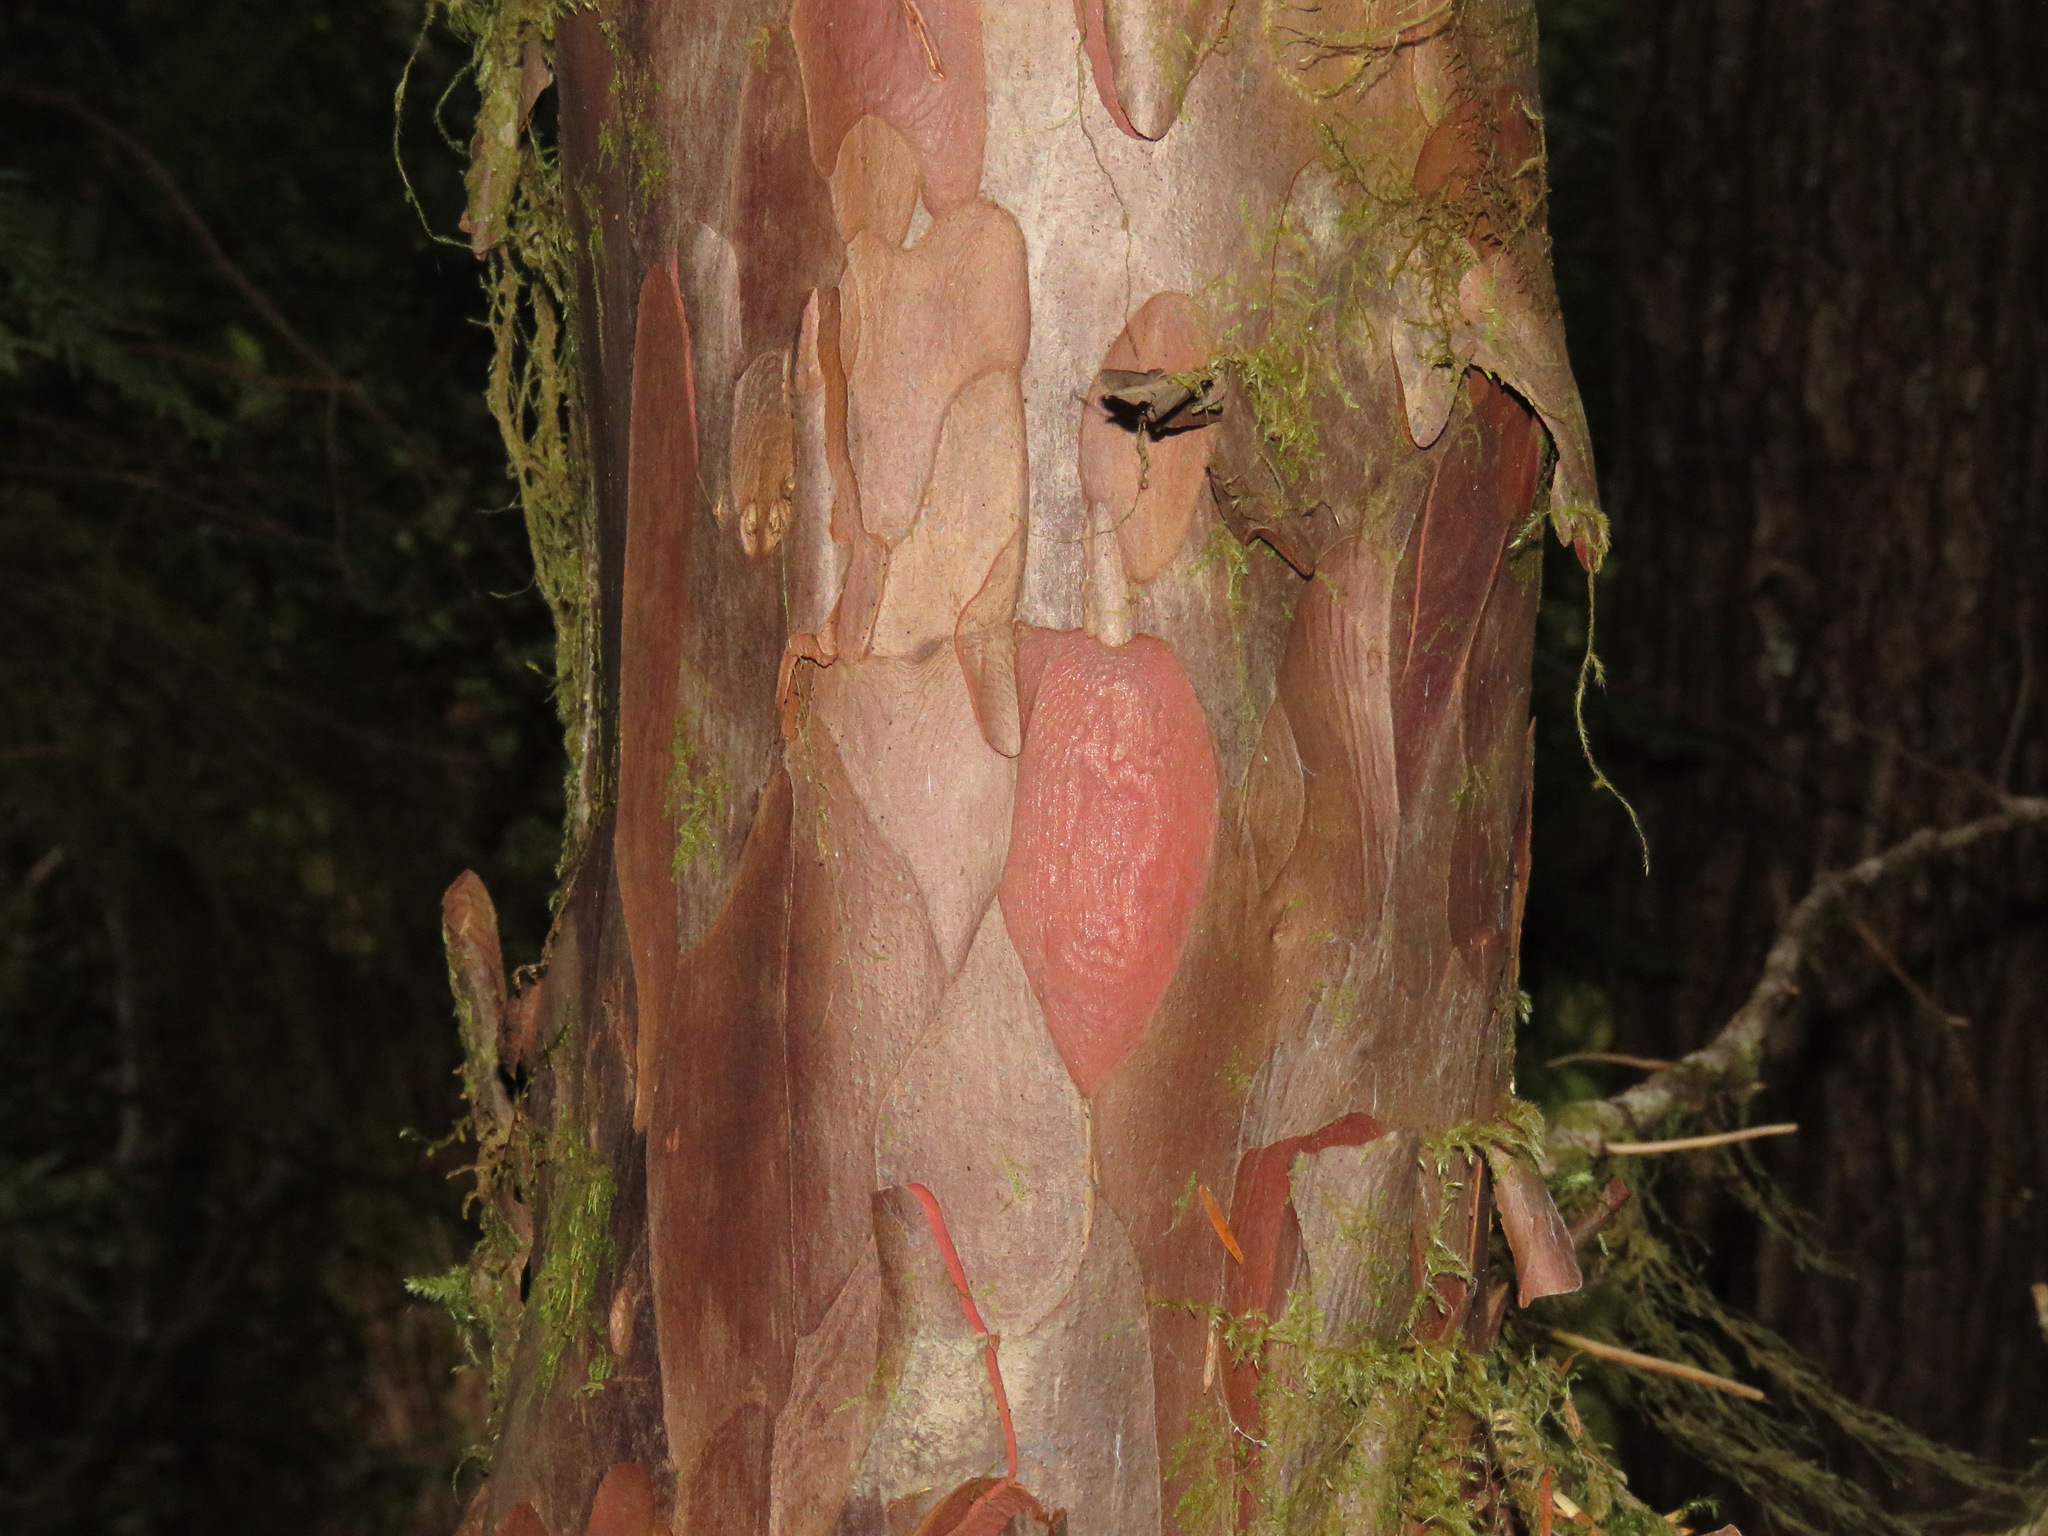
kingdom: Plantae
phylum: Tracheophyta
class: Pinopsida
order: Pinales
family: Taxaceae
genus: Taxus
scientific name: Taxus brevifolia
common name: Pacific yew
